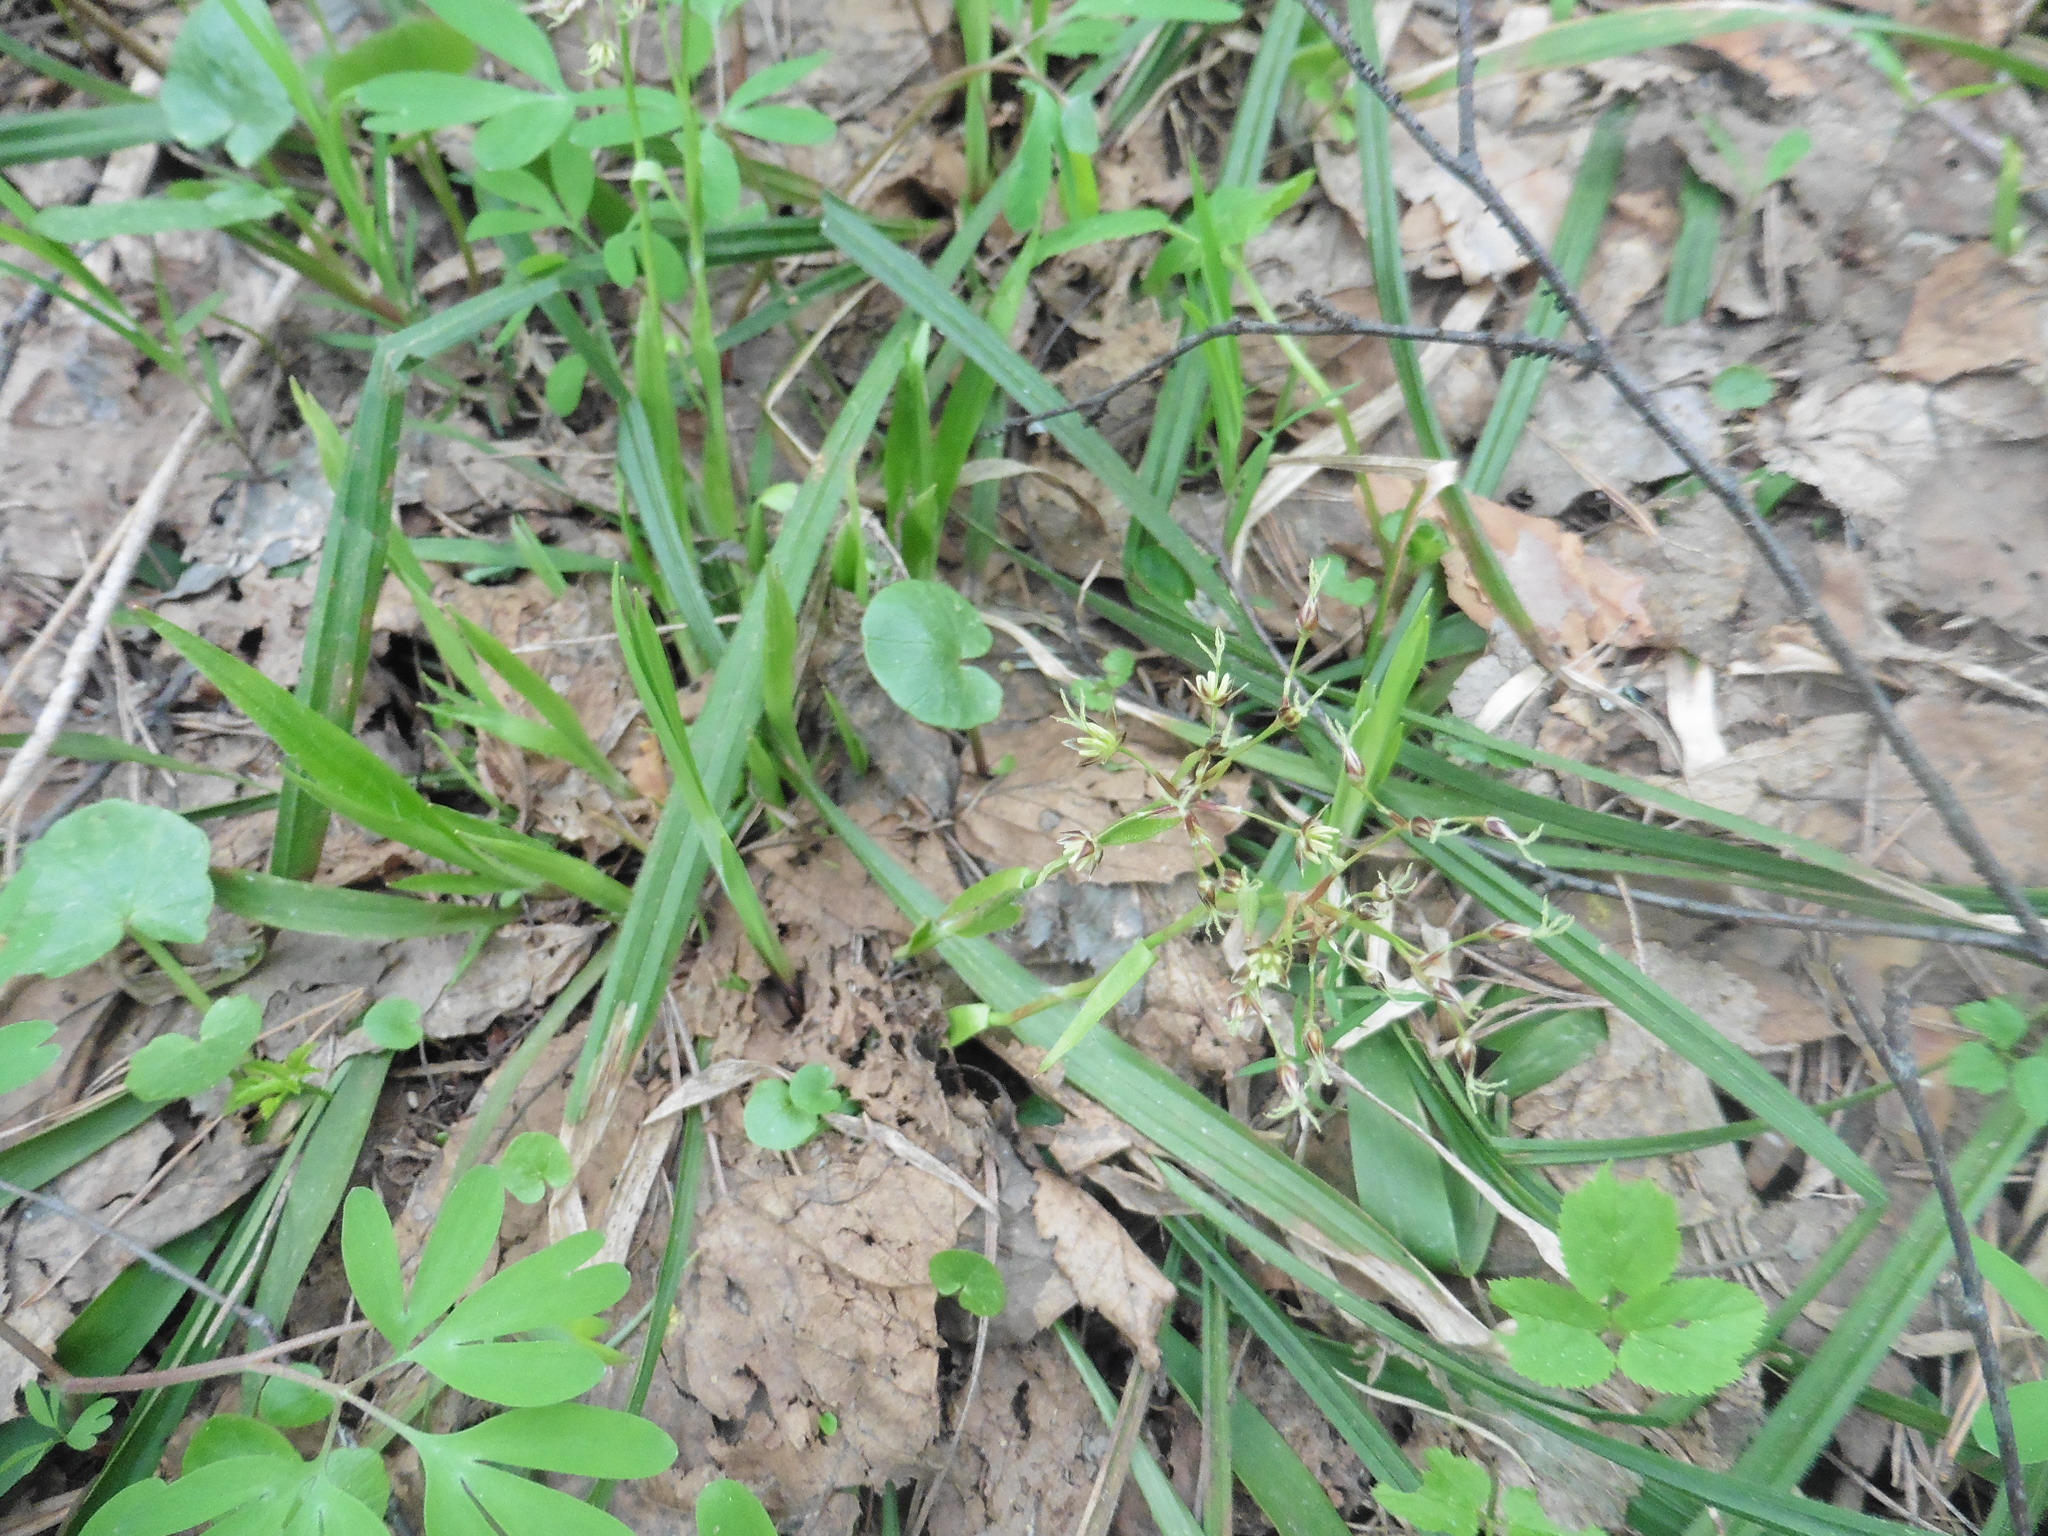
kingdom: Plantae
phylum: Tracheophyta
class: Liliopsida
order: Poales
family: Juncaceae
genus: Luzula
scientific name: Luzula pilosa
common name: Hairy wood-rush
